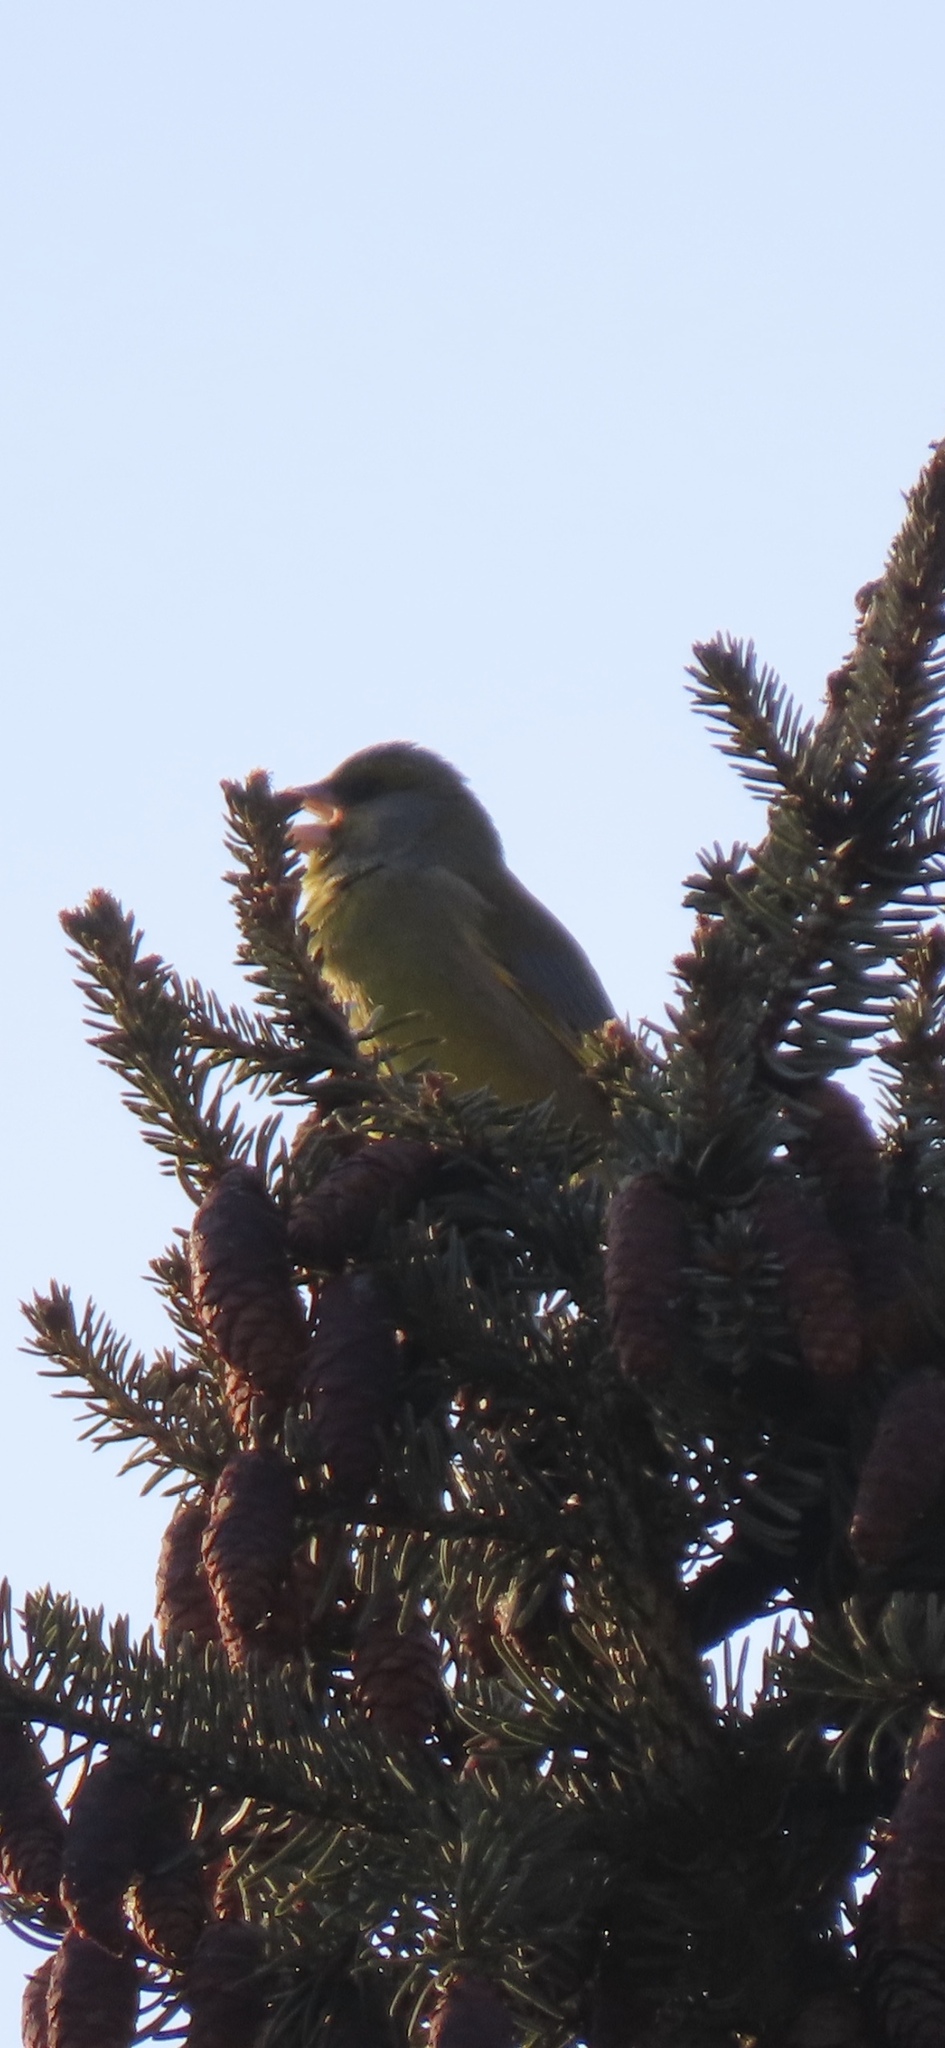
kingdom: Plantae
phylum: Tracheophyta
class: Liliopsida
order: Poales
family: Poaceae
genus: Chloris
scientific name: Chloris chloris
